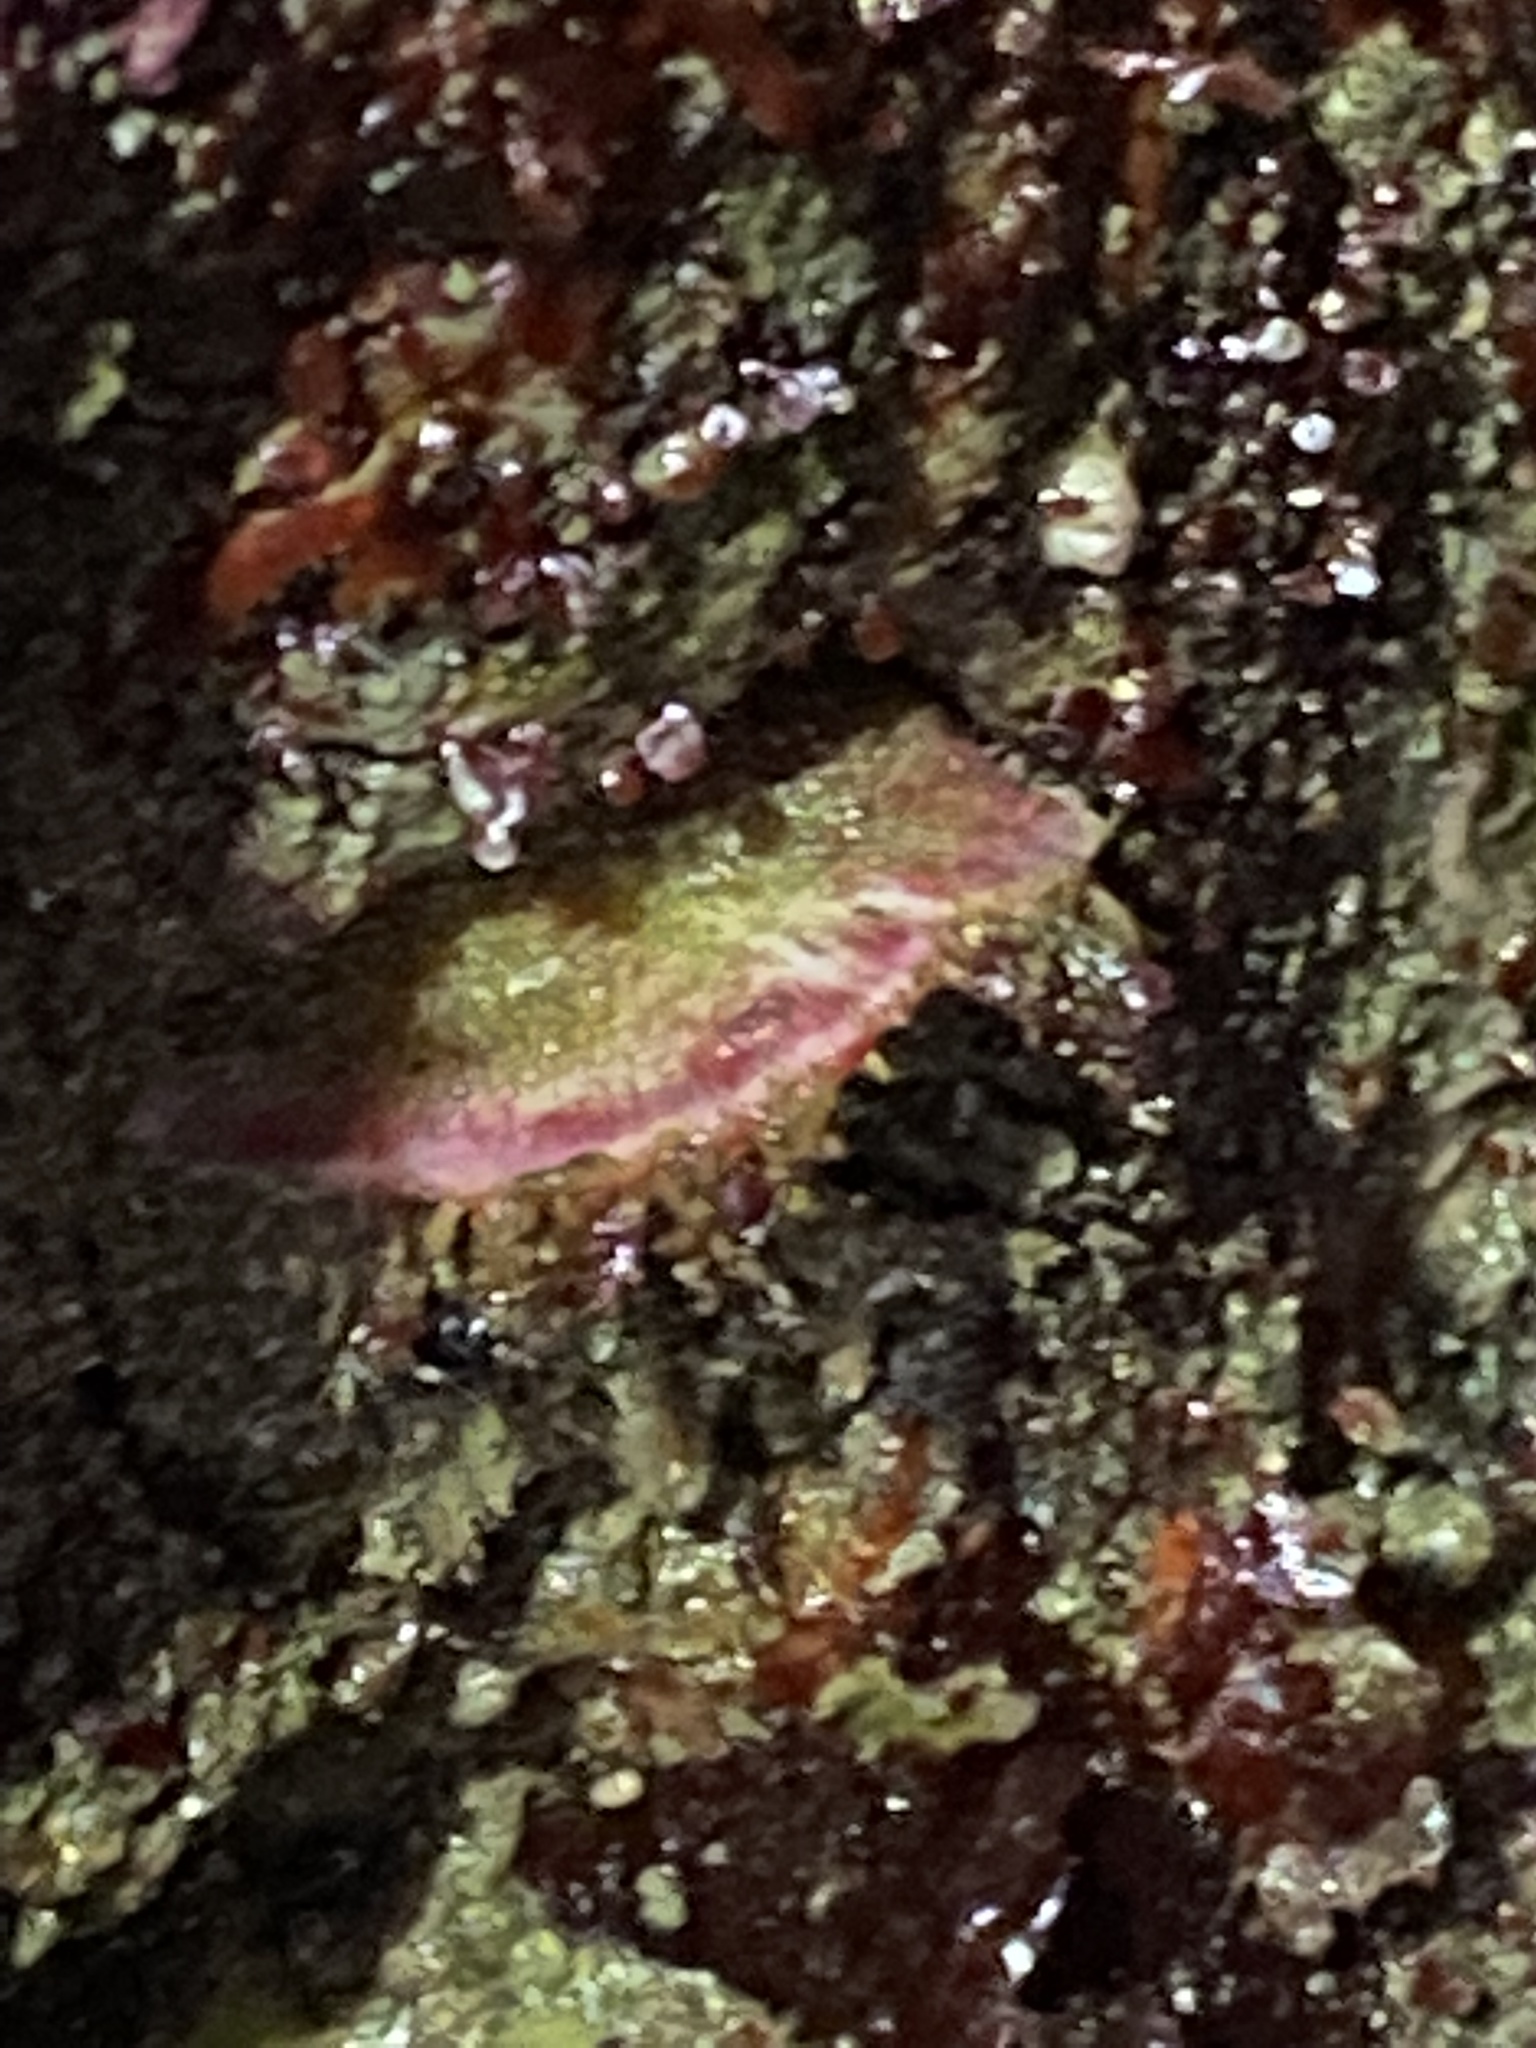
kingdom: Animalia
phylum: Mollusca
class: Polyplacophora
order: Chitonida
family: Mopaliidae
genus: Placiphorella
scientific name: Placiphorella velata
